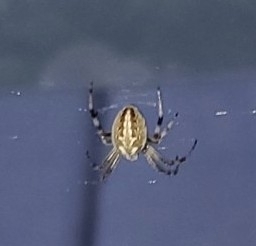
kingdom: Animalia
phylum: Arthropoda
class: Arachnida
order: Araneae
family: Araneidae
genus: Neoscona
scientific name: Neoscona oaxacensis
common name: Orb weavers
